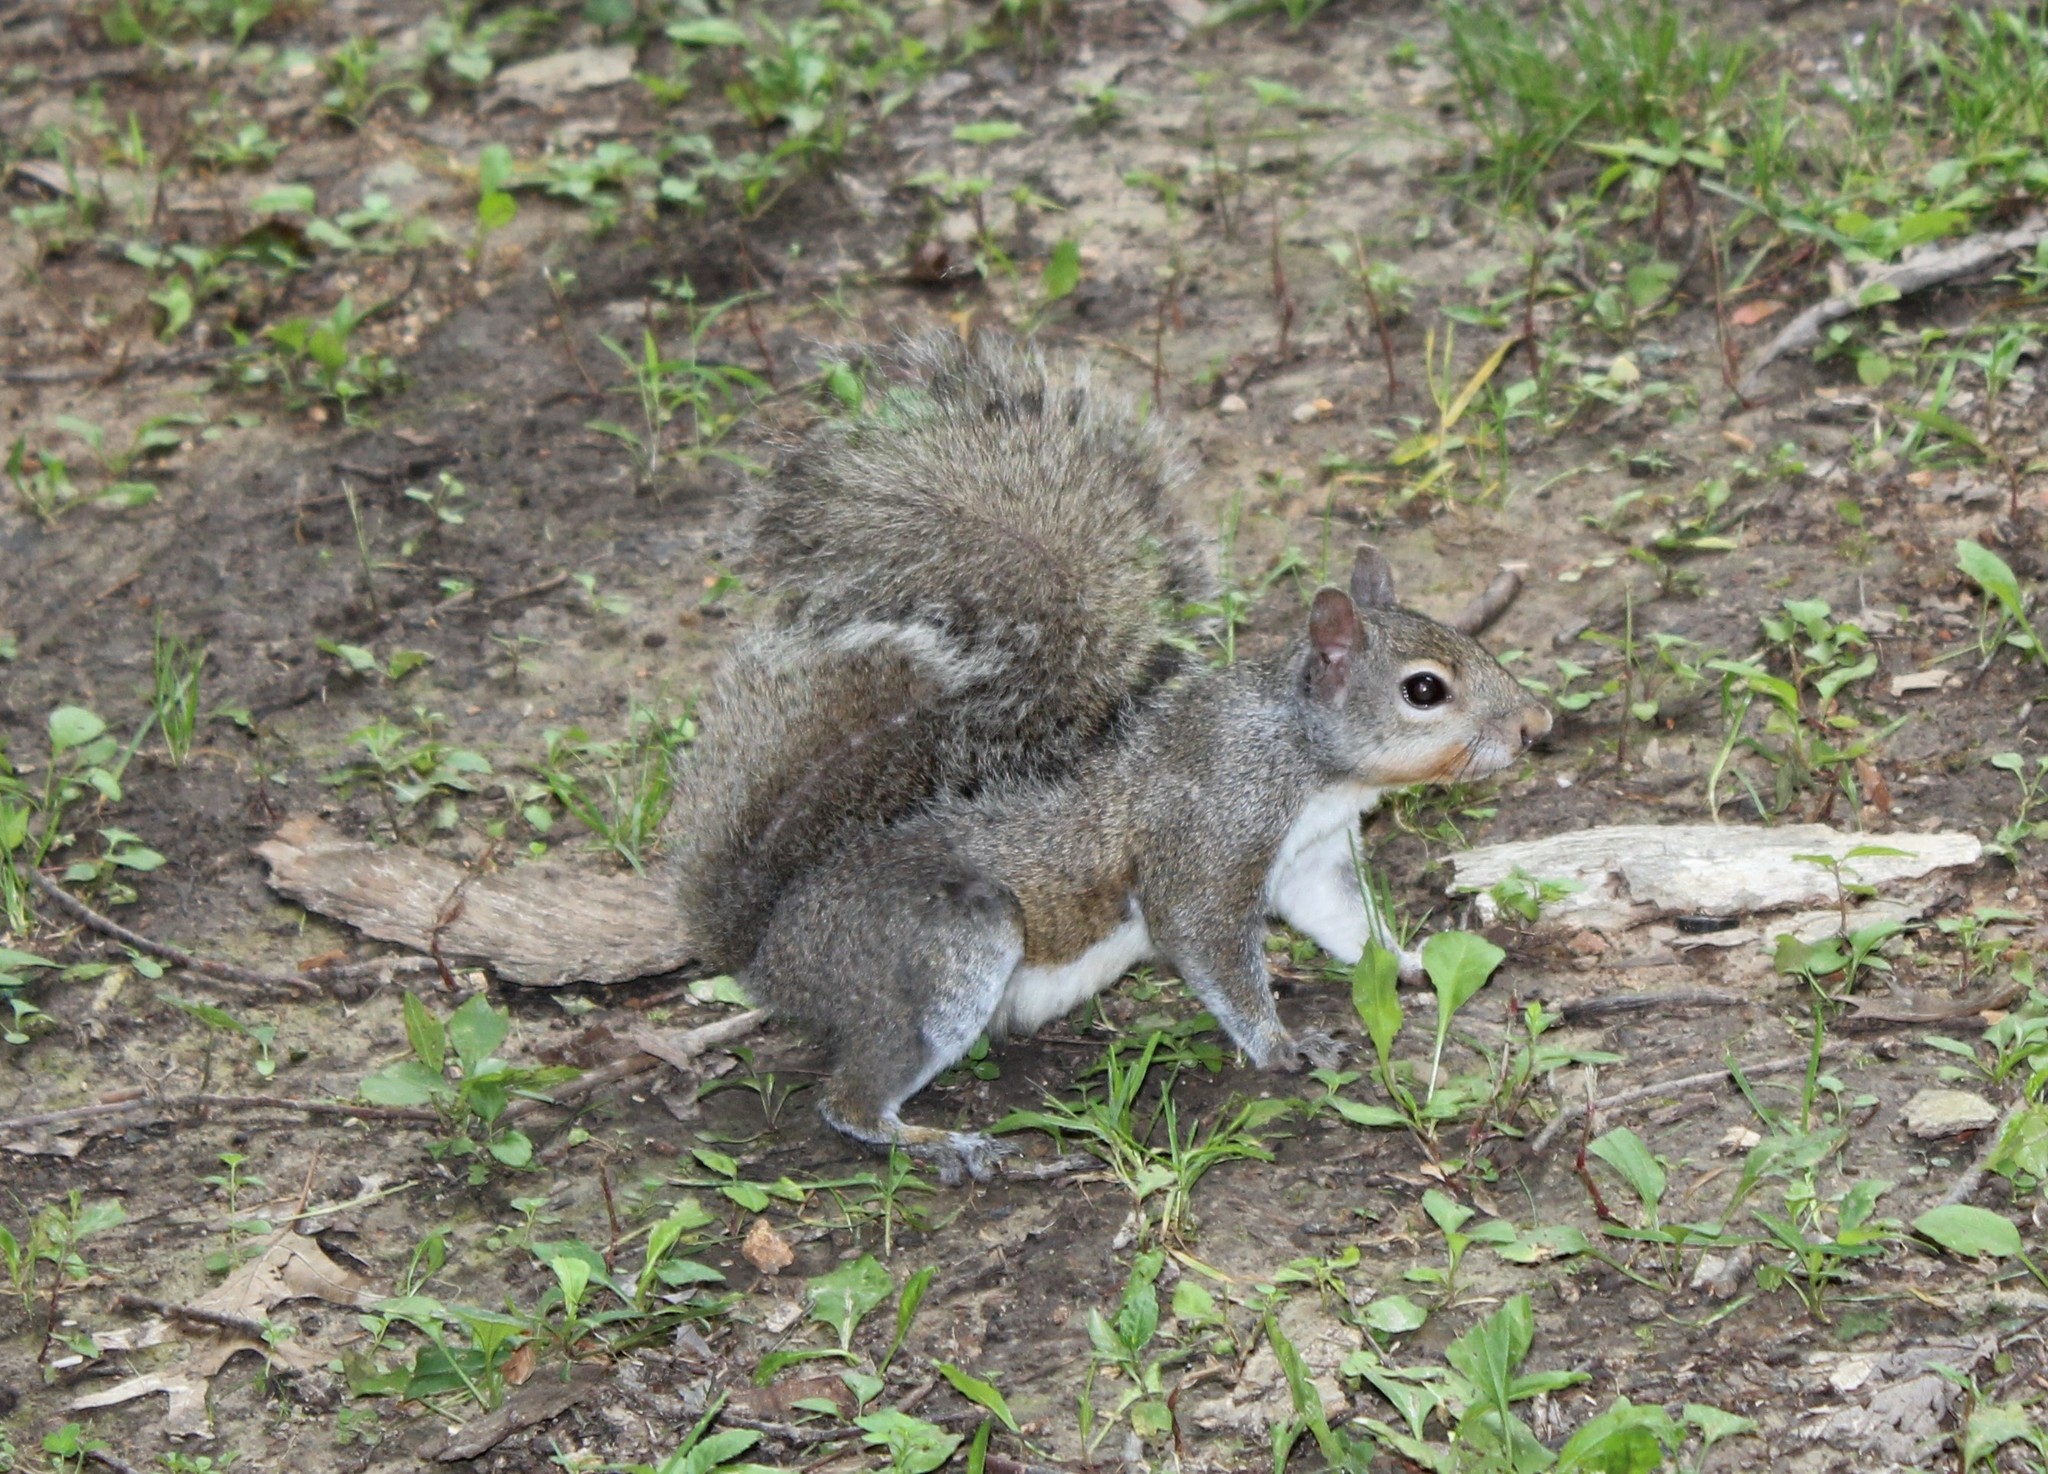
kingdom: Animalia
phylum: Chordata
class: Mammalia
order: Rodentia
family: Sciuridae
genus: Sciurus
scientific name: Sciurus carolinensis
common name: Eastern gray squirrel
